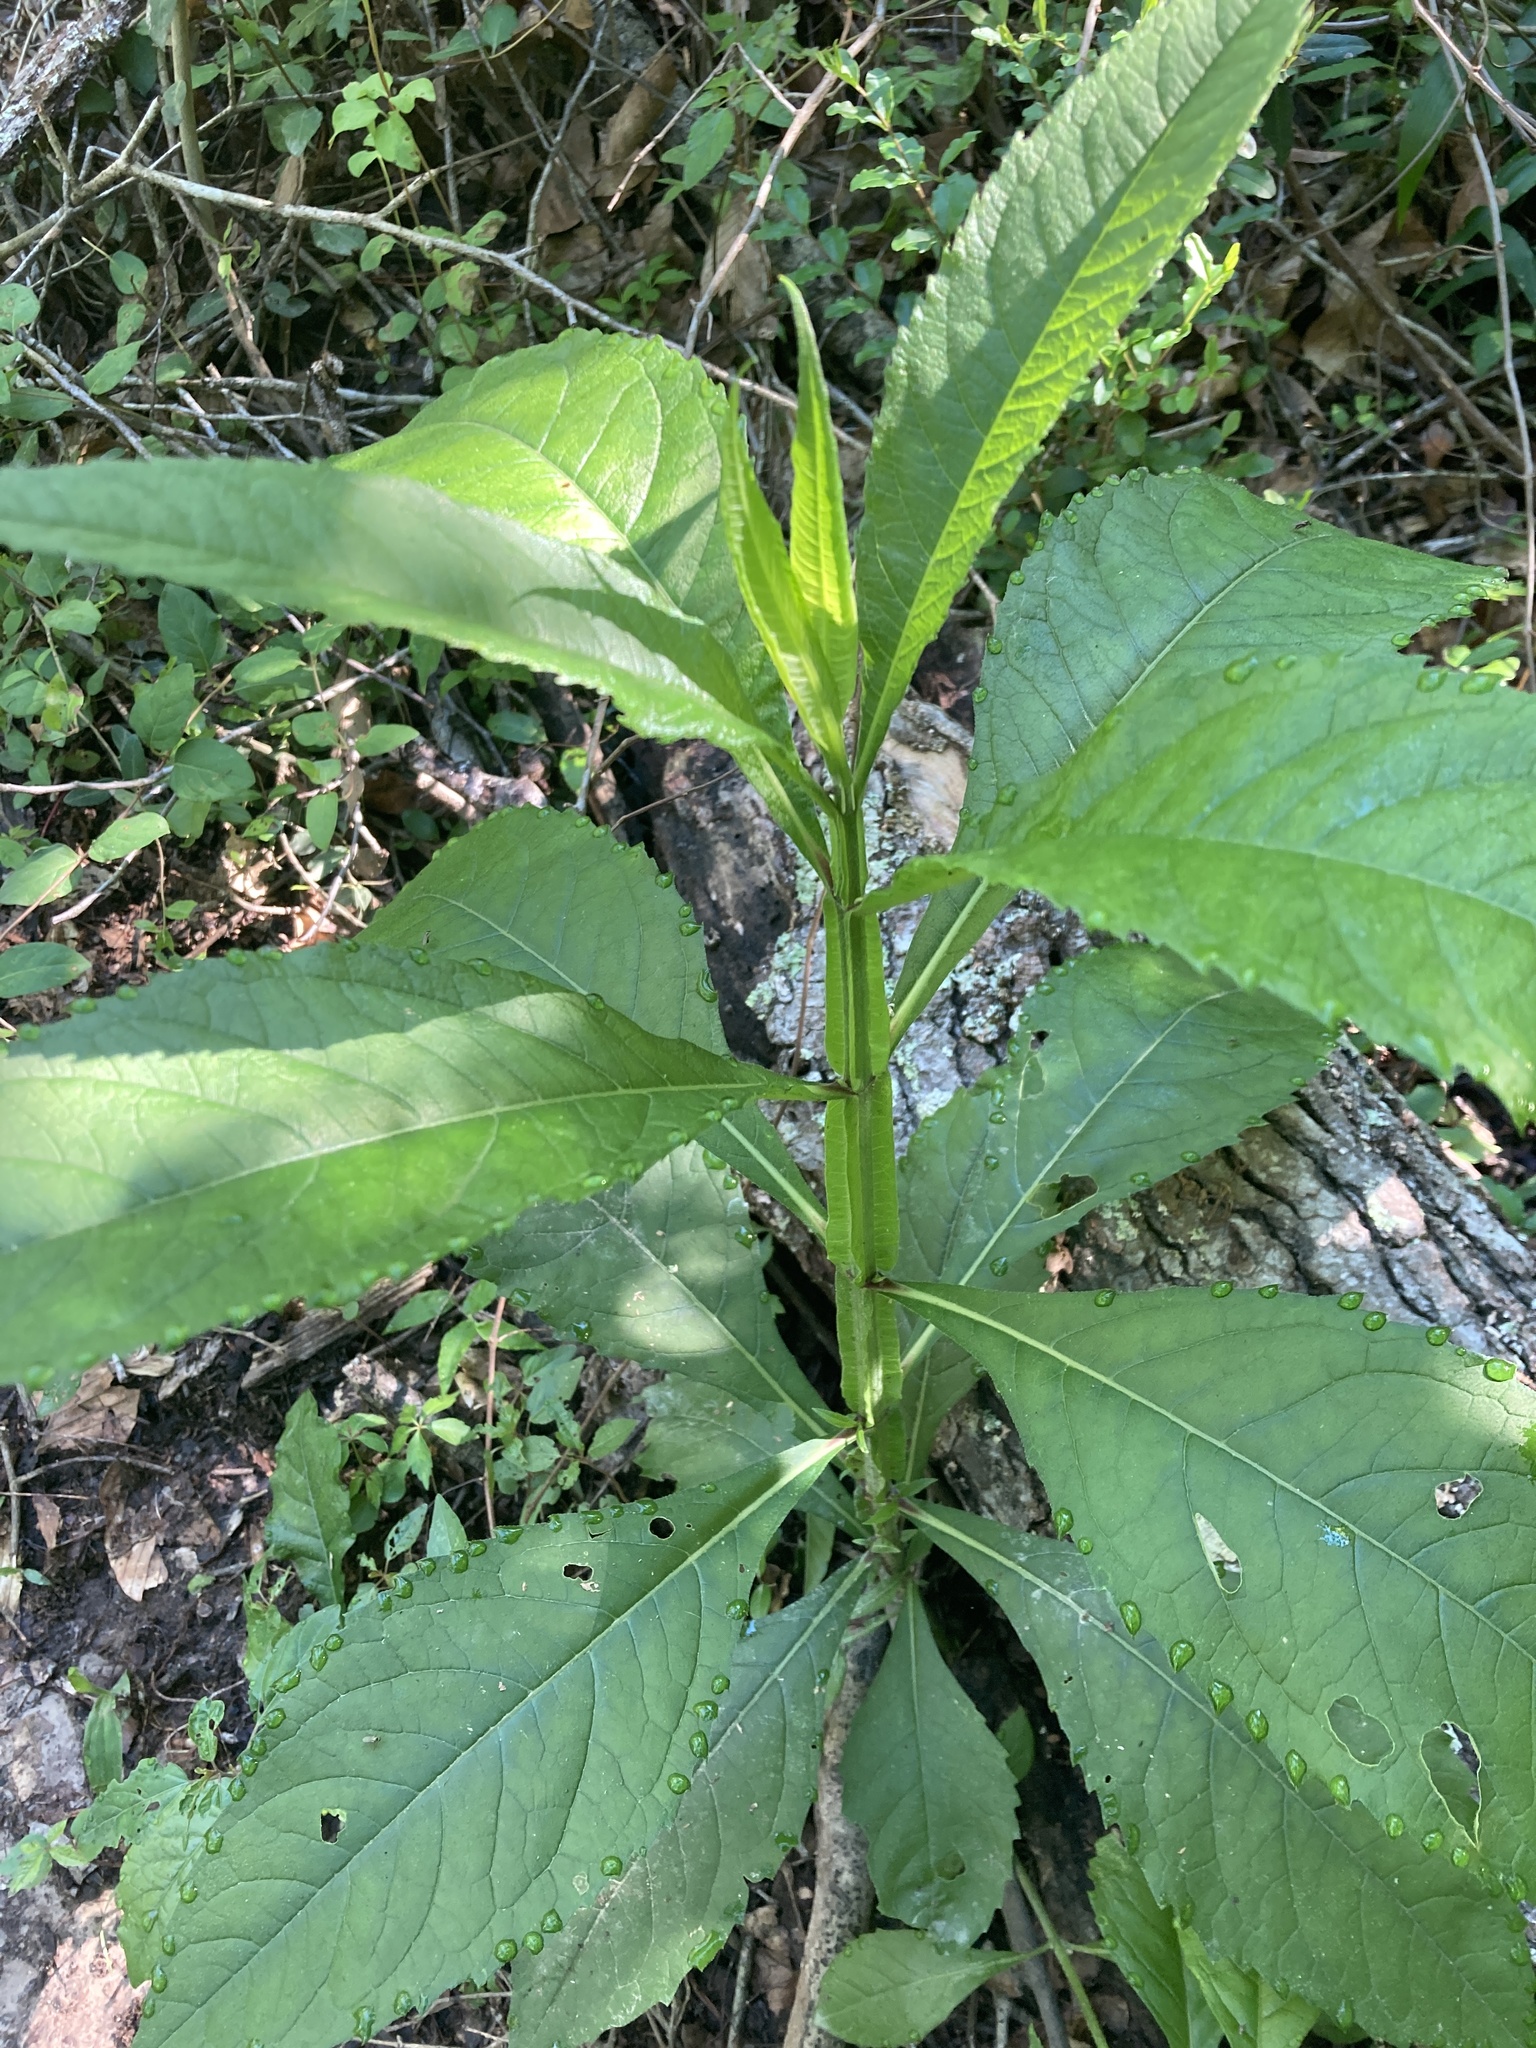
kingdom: Plantae
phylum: Tracheophyta
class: Magnoliopsida
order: Asterales
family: Asteraceae
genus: Verbesina
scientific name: Verbesina alternifolia
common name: Wingstem
